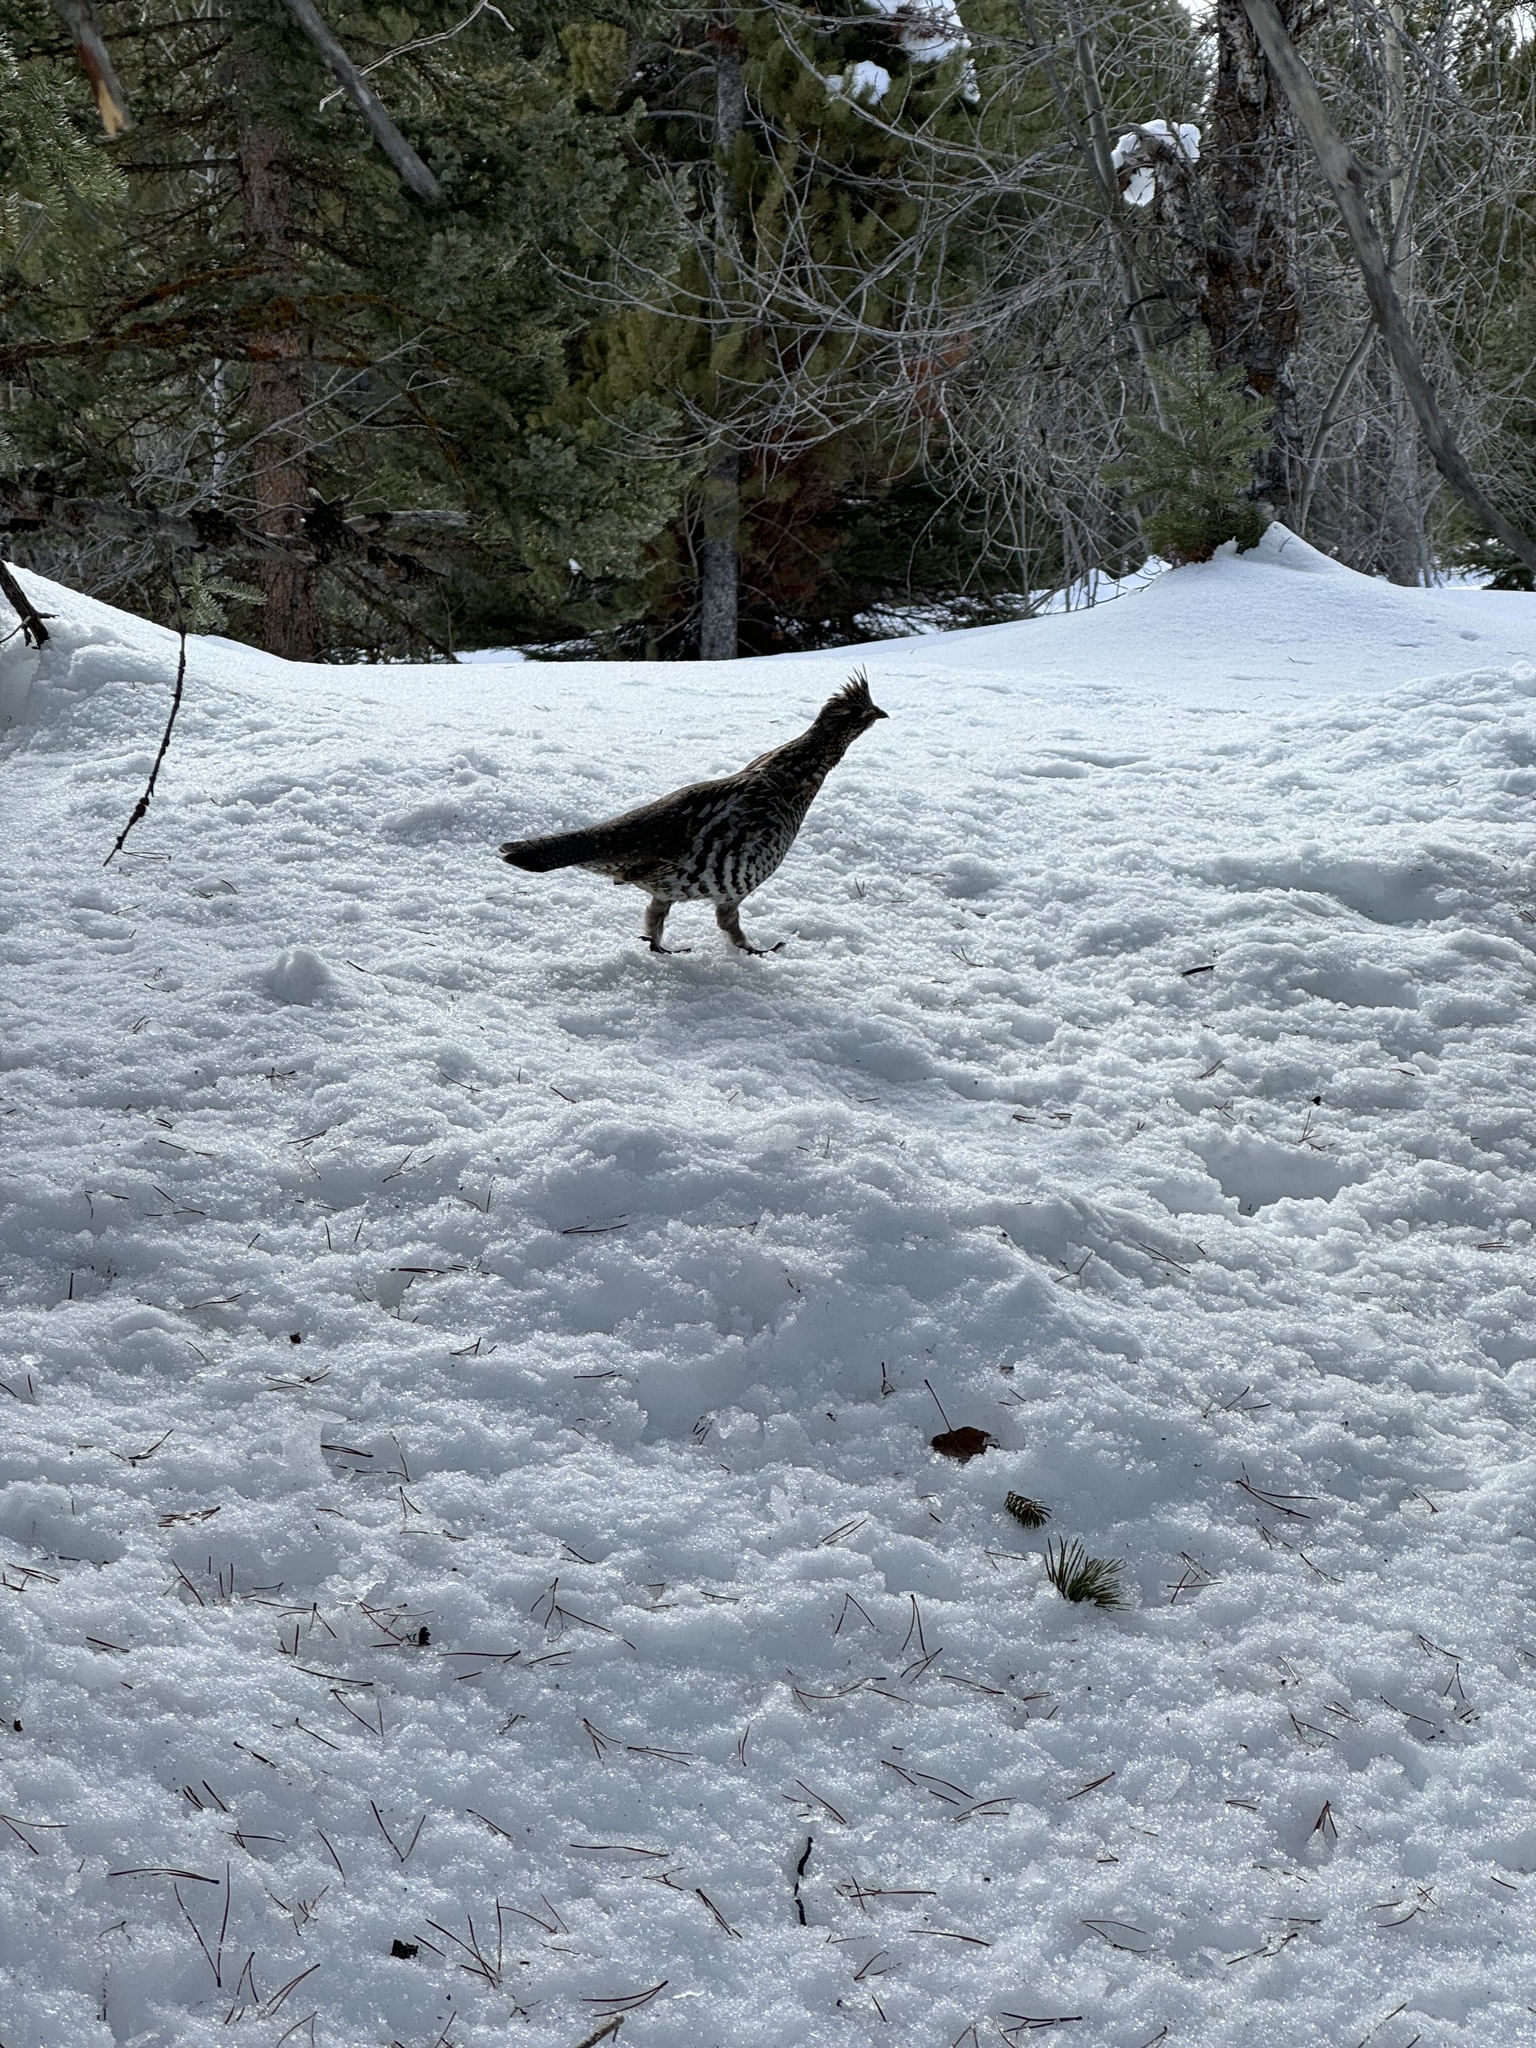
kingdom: Animalia
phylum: Chordata
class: Aves
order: Galliformes
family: Phasianidae
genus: Bonasa
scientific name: Bonasa umbellus
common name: Ruffed grouse
